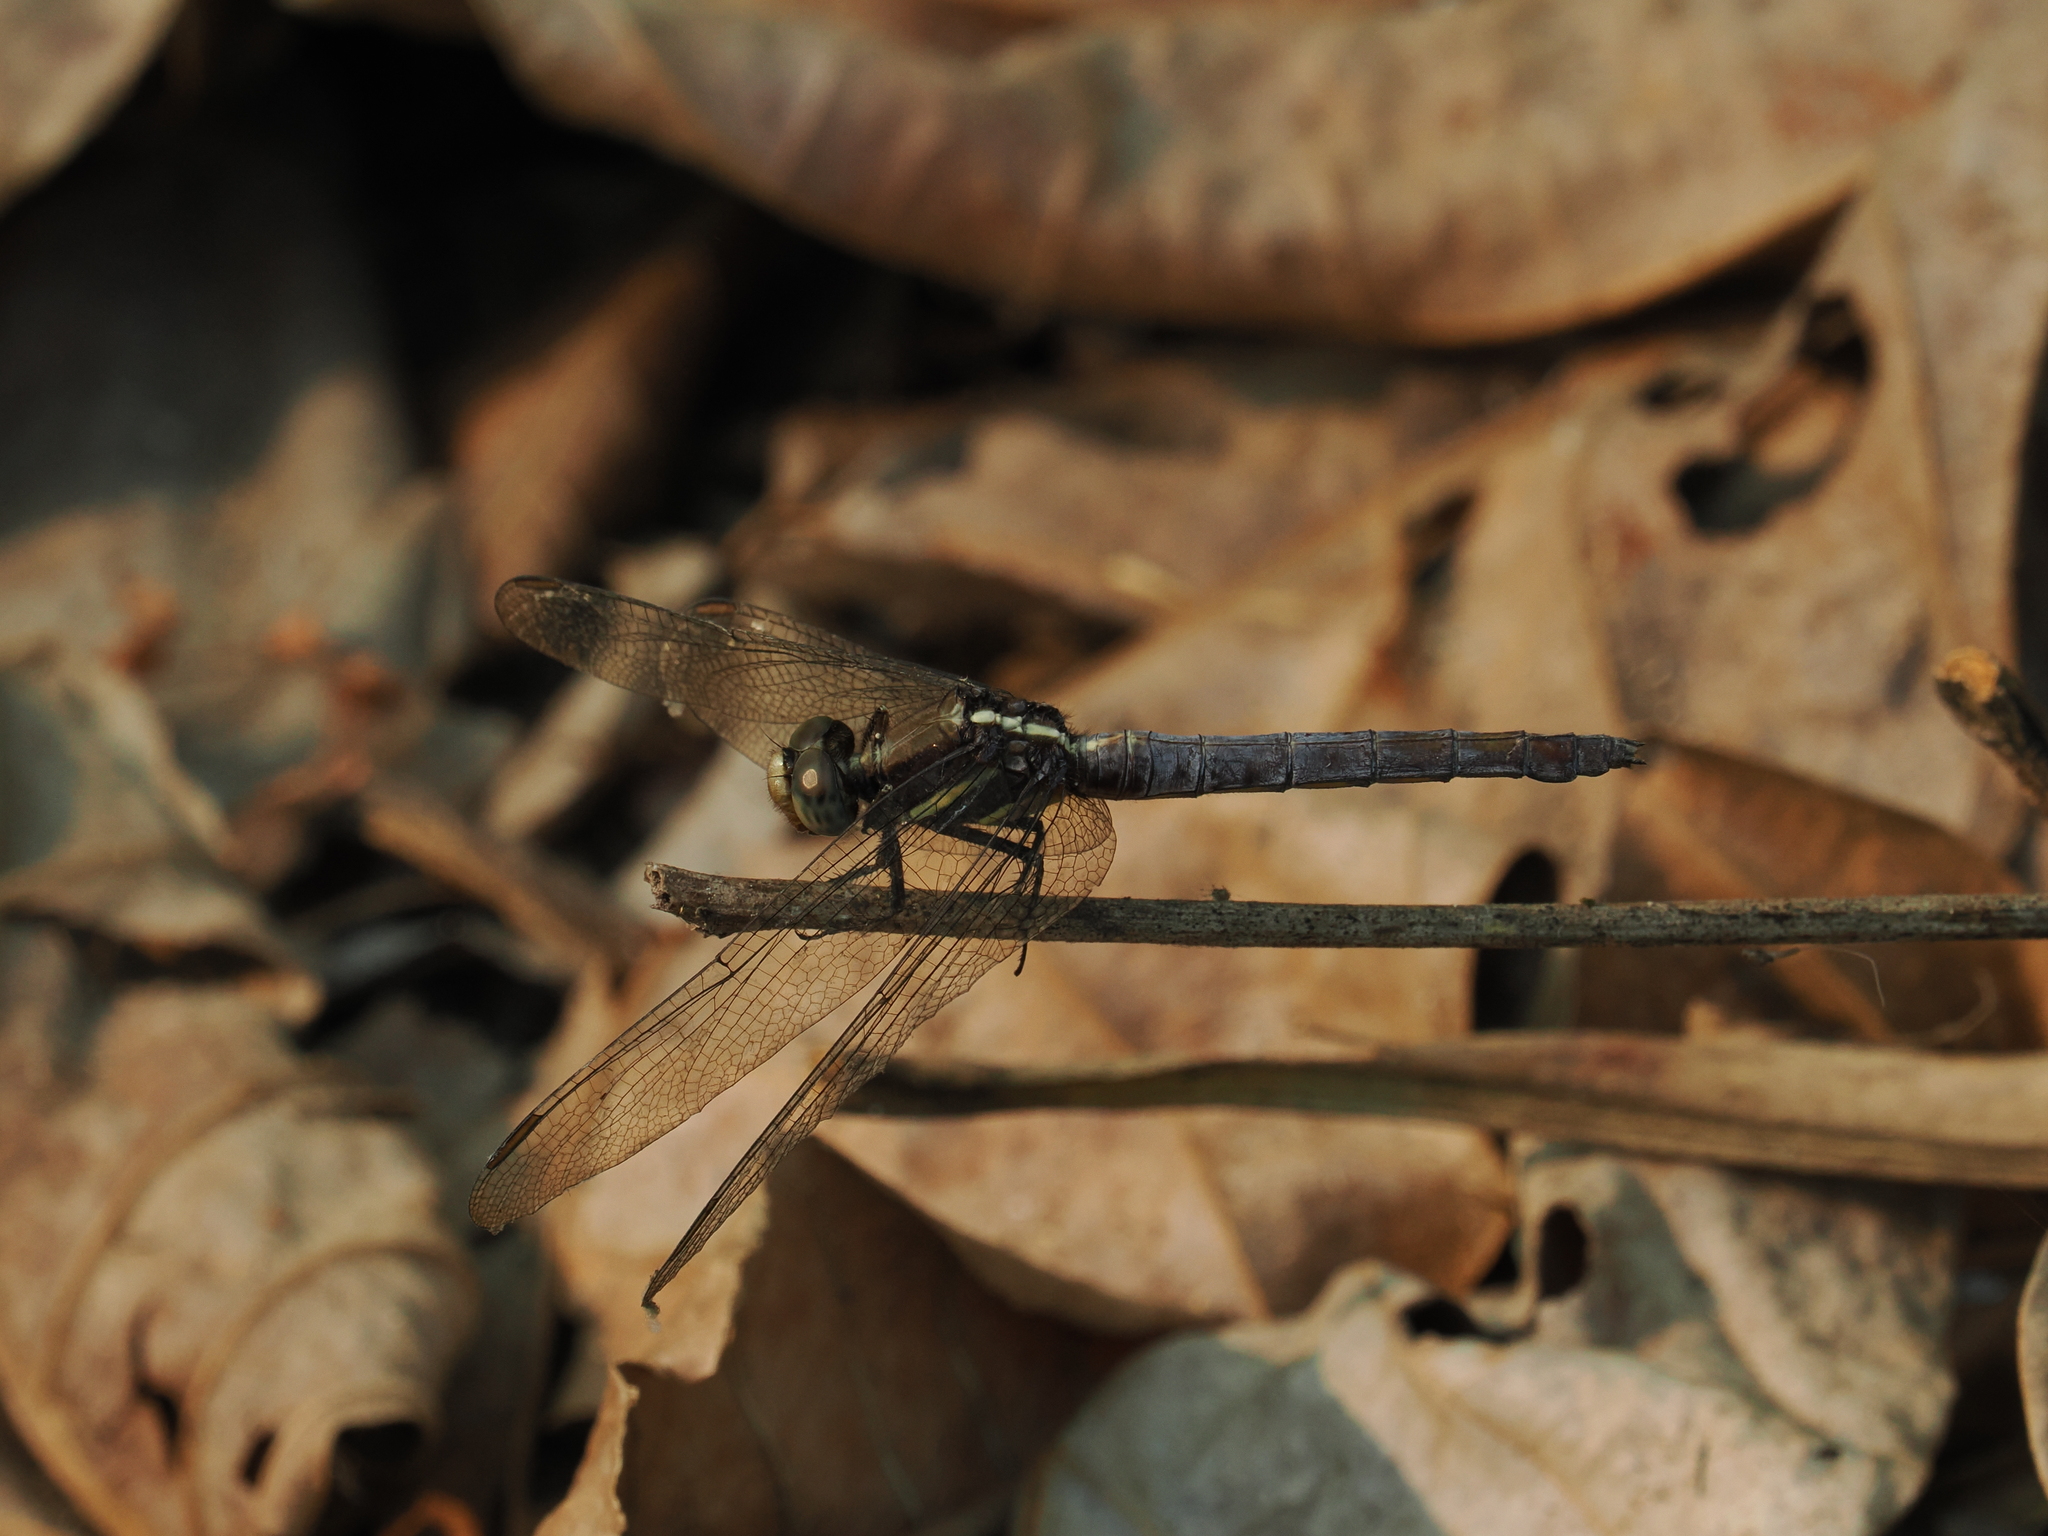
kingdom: Animalia
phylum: Arthropoda
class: Insecta
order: Odonata
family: Libellulidae
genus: Orthetrum
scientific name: Orthetrum glaucum
